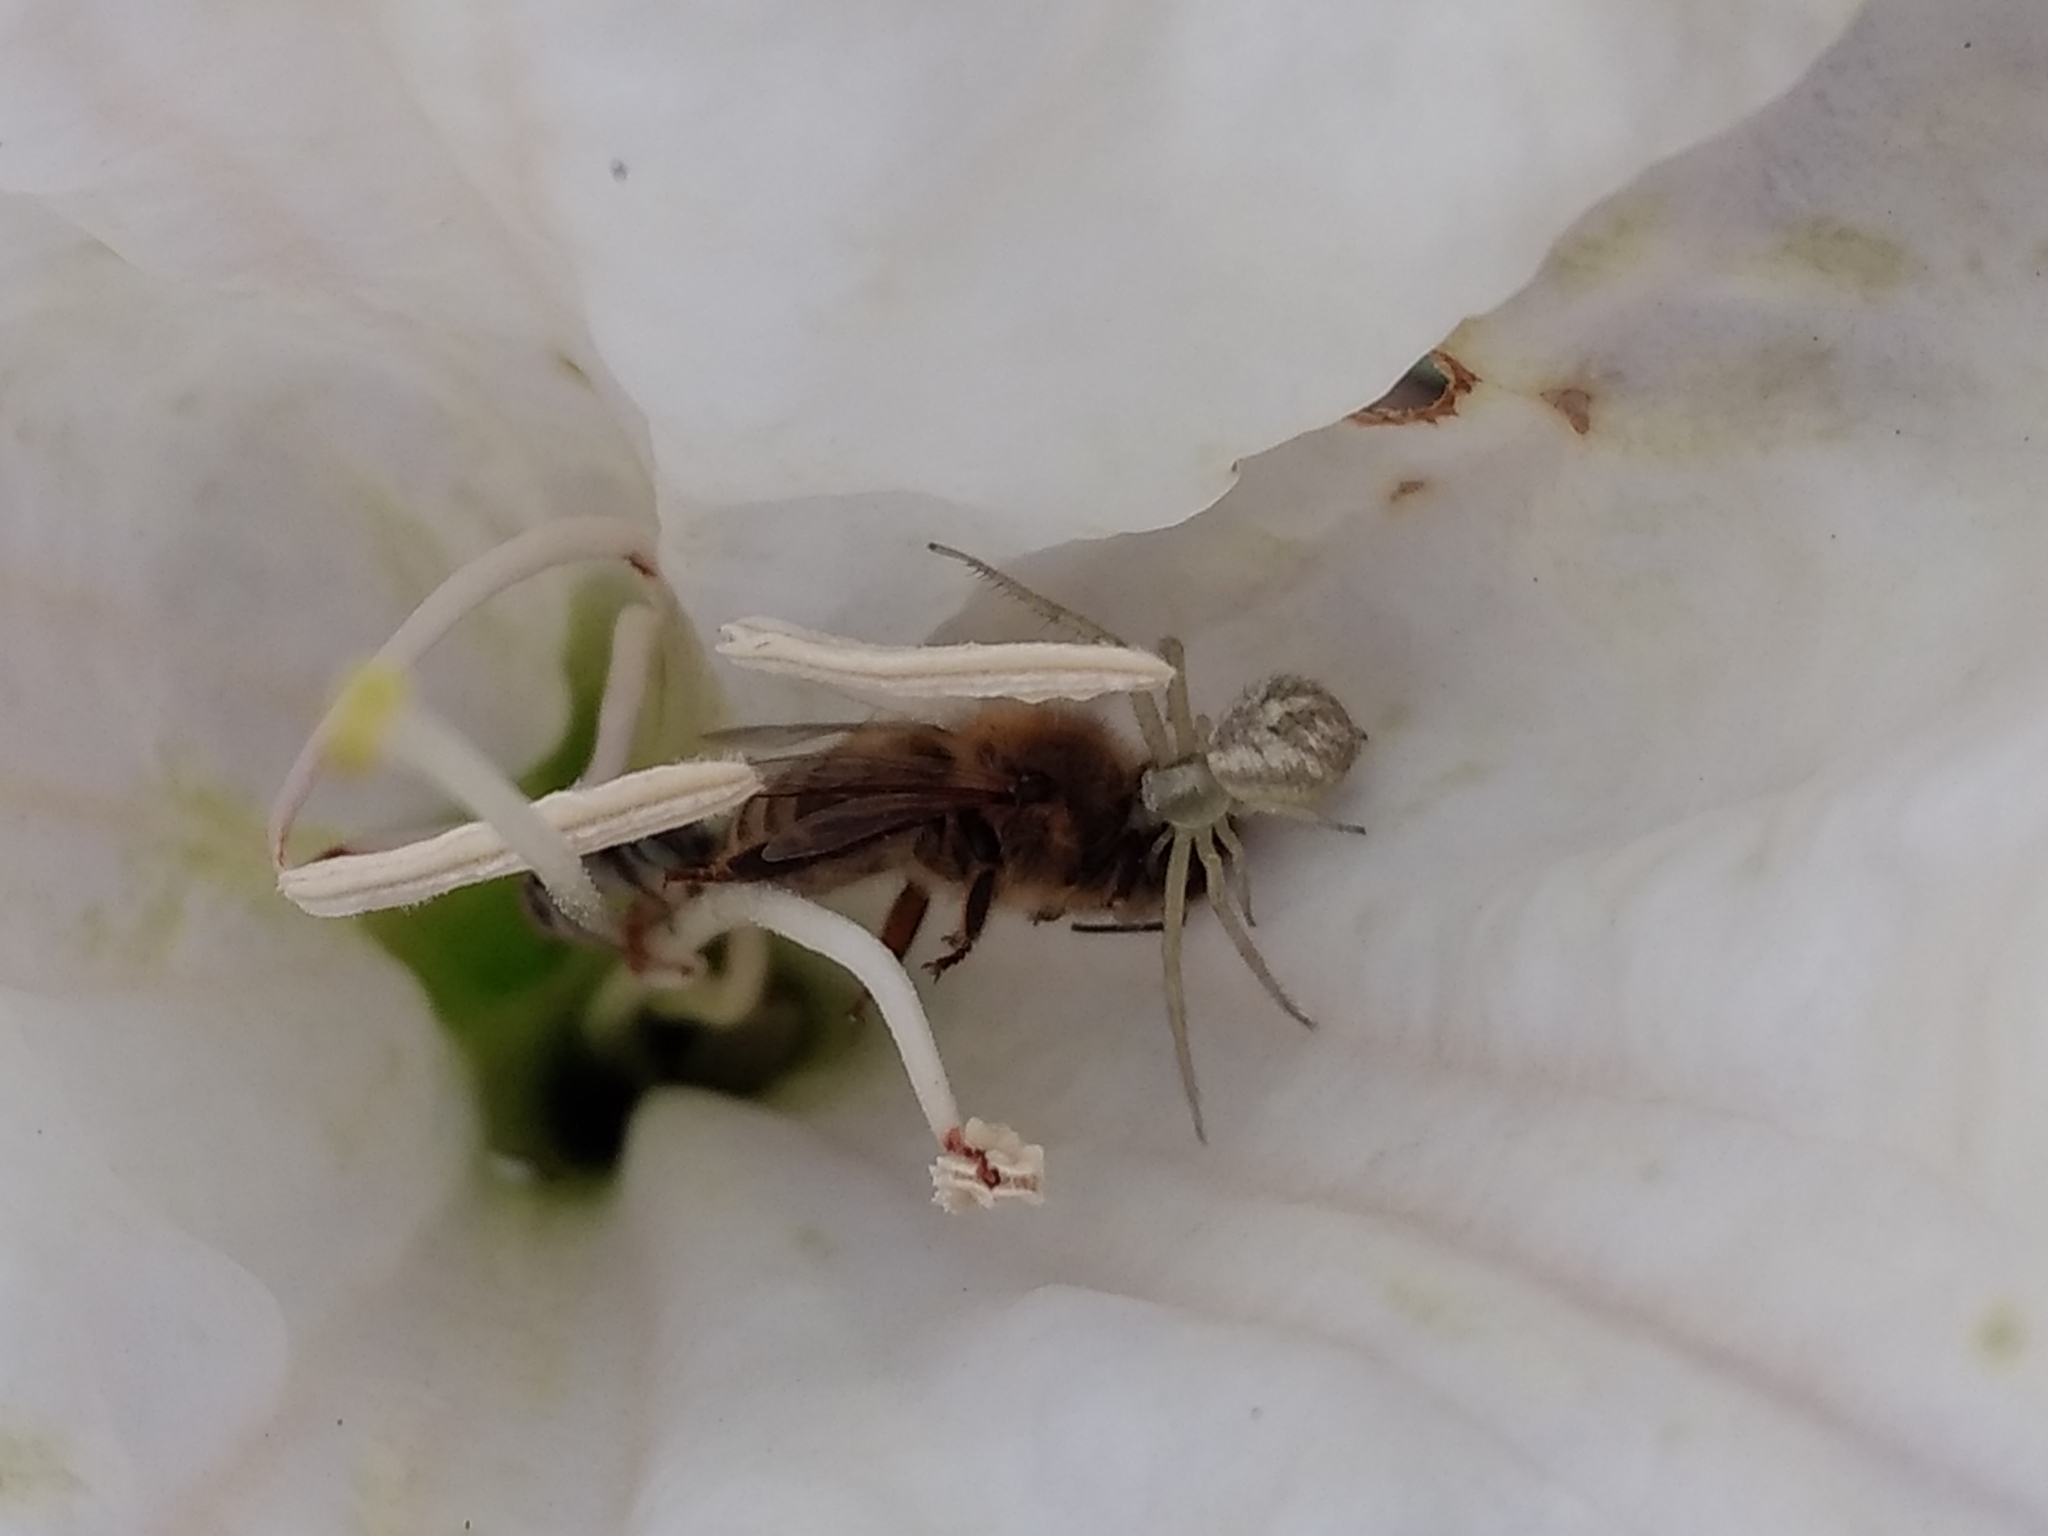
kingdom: Animalia
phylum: Arthropoda
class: Insecta
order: Hymenoptera
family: Apidae
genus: Apis
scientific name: Apis mellifera
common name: Honey bee
